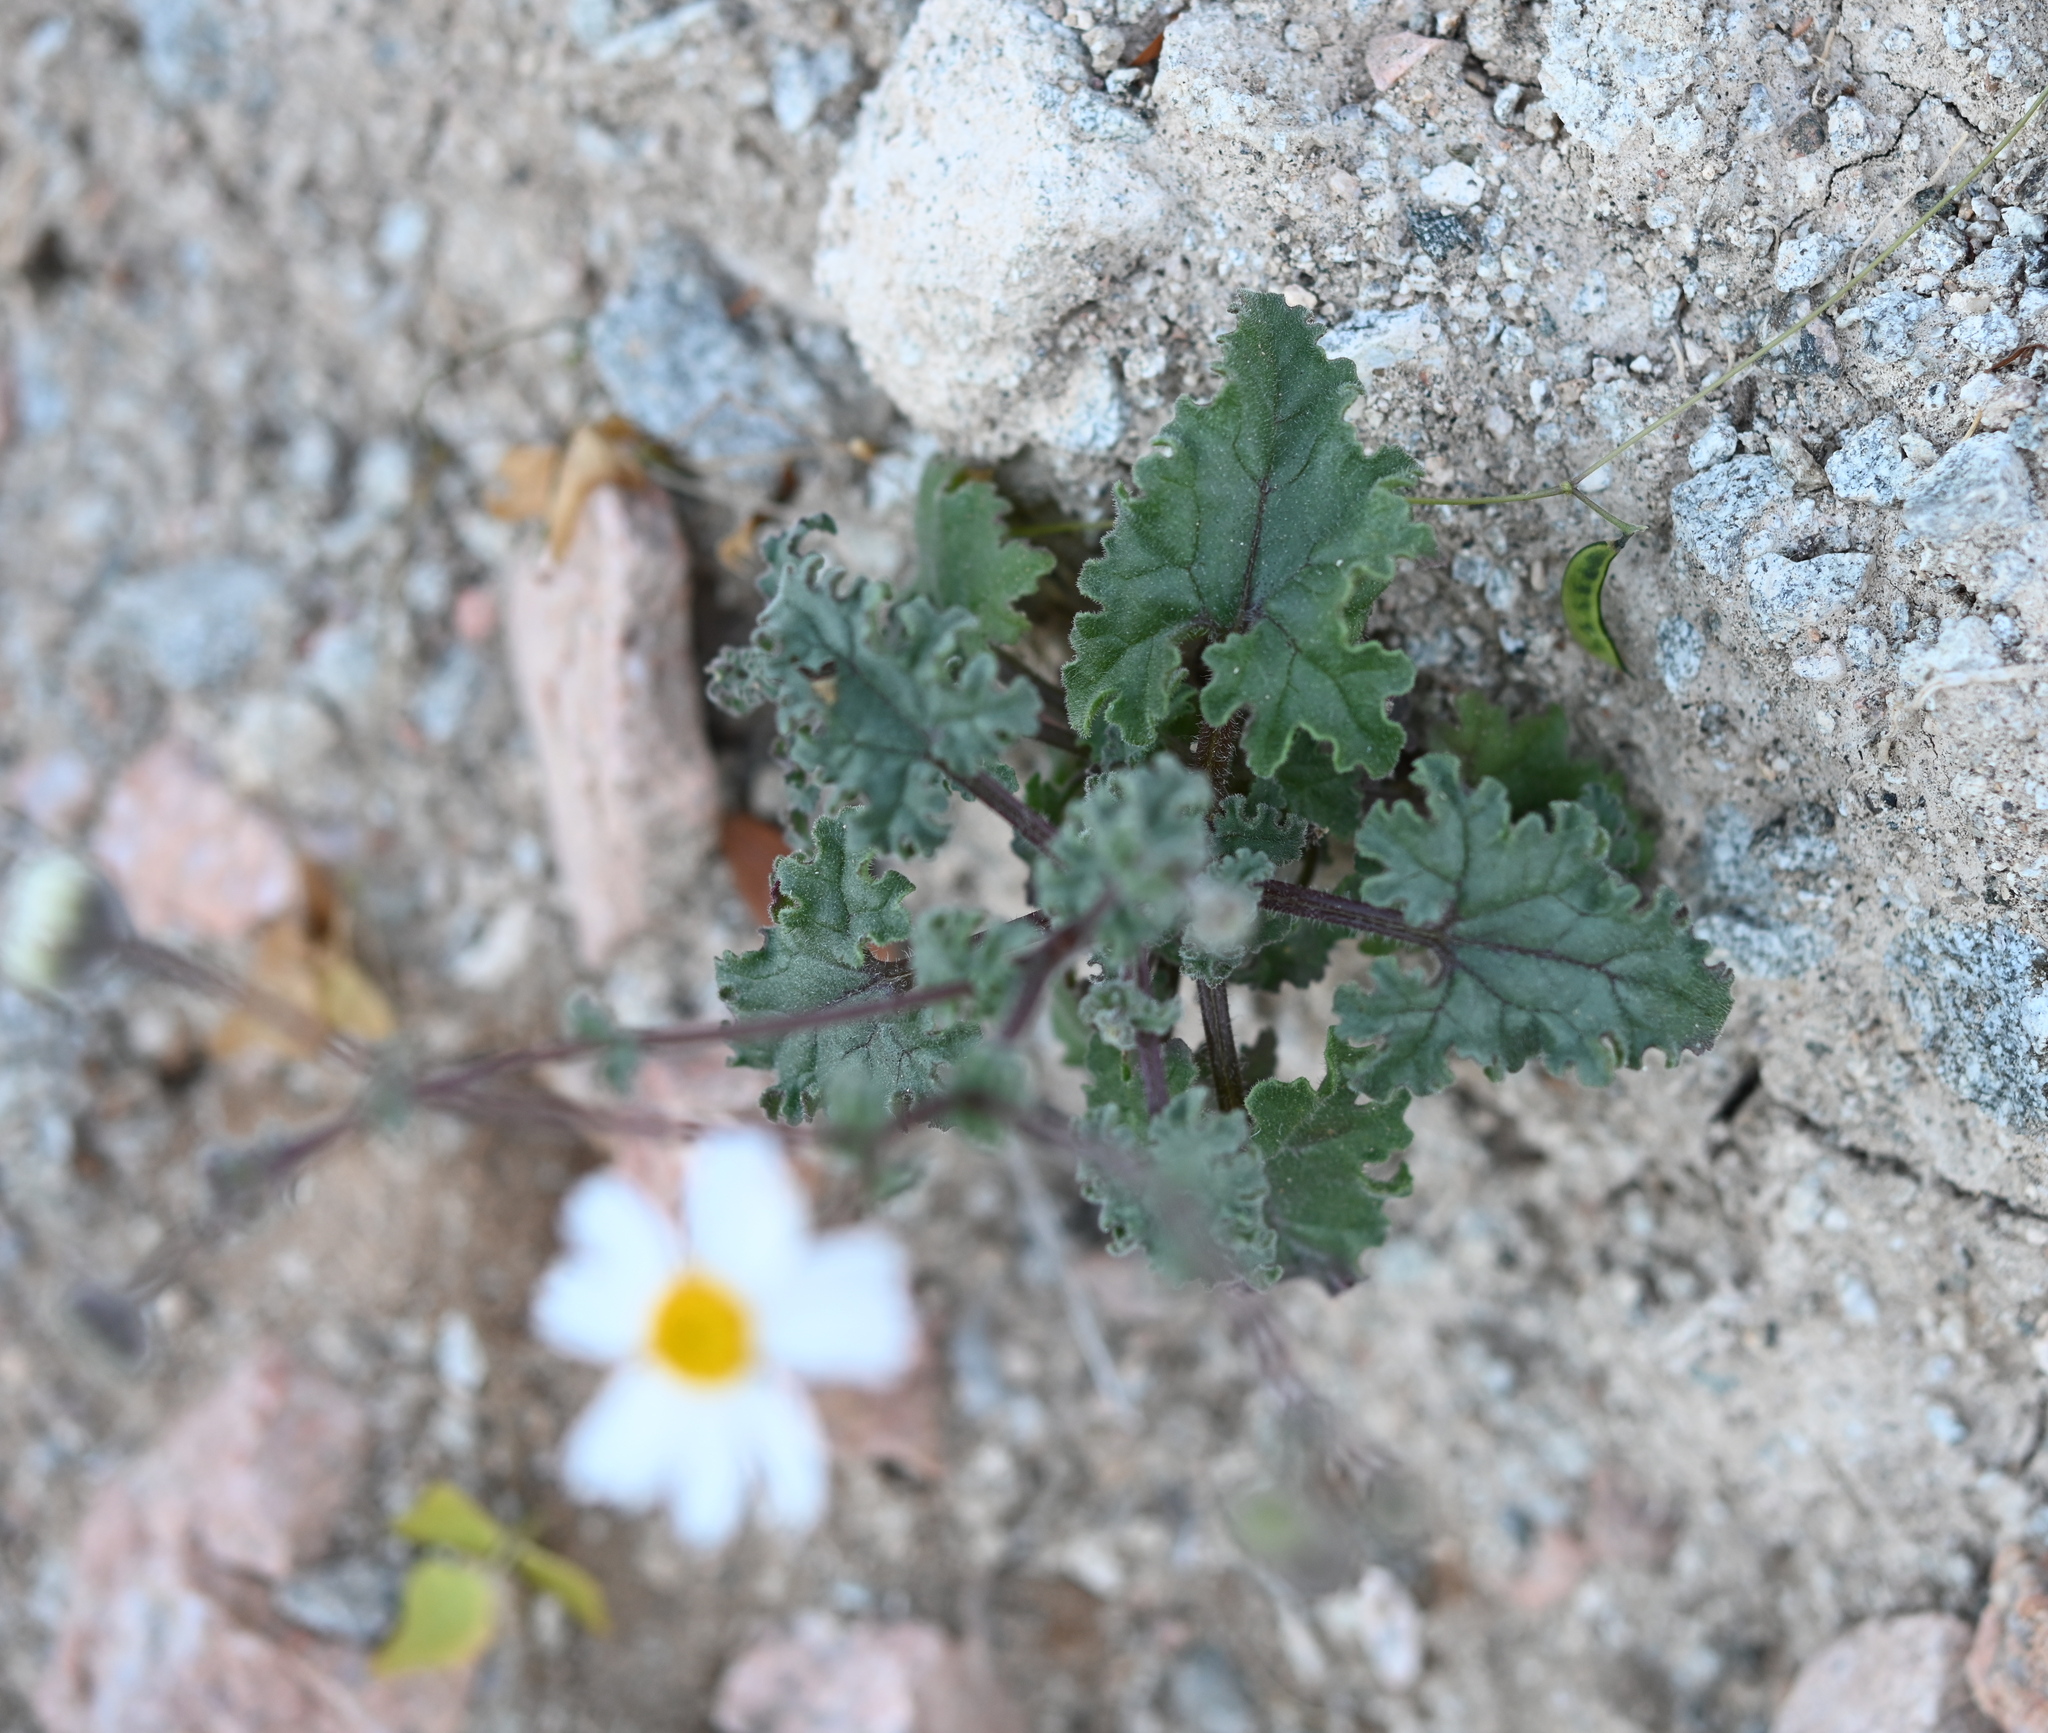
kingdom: Plantae
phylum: Tracheophyta
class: Magnoliopsida
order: Asterales
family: Asteraceae
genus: Perityle
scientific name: Perityle crassifolia
